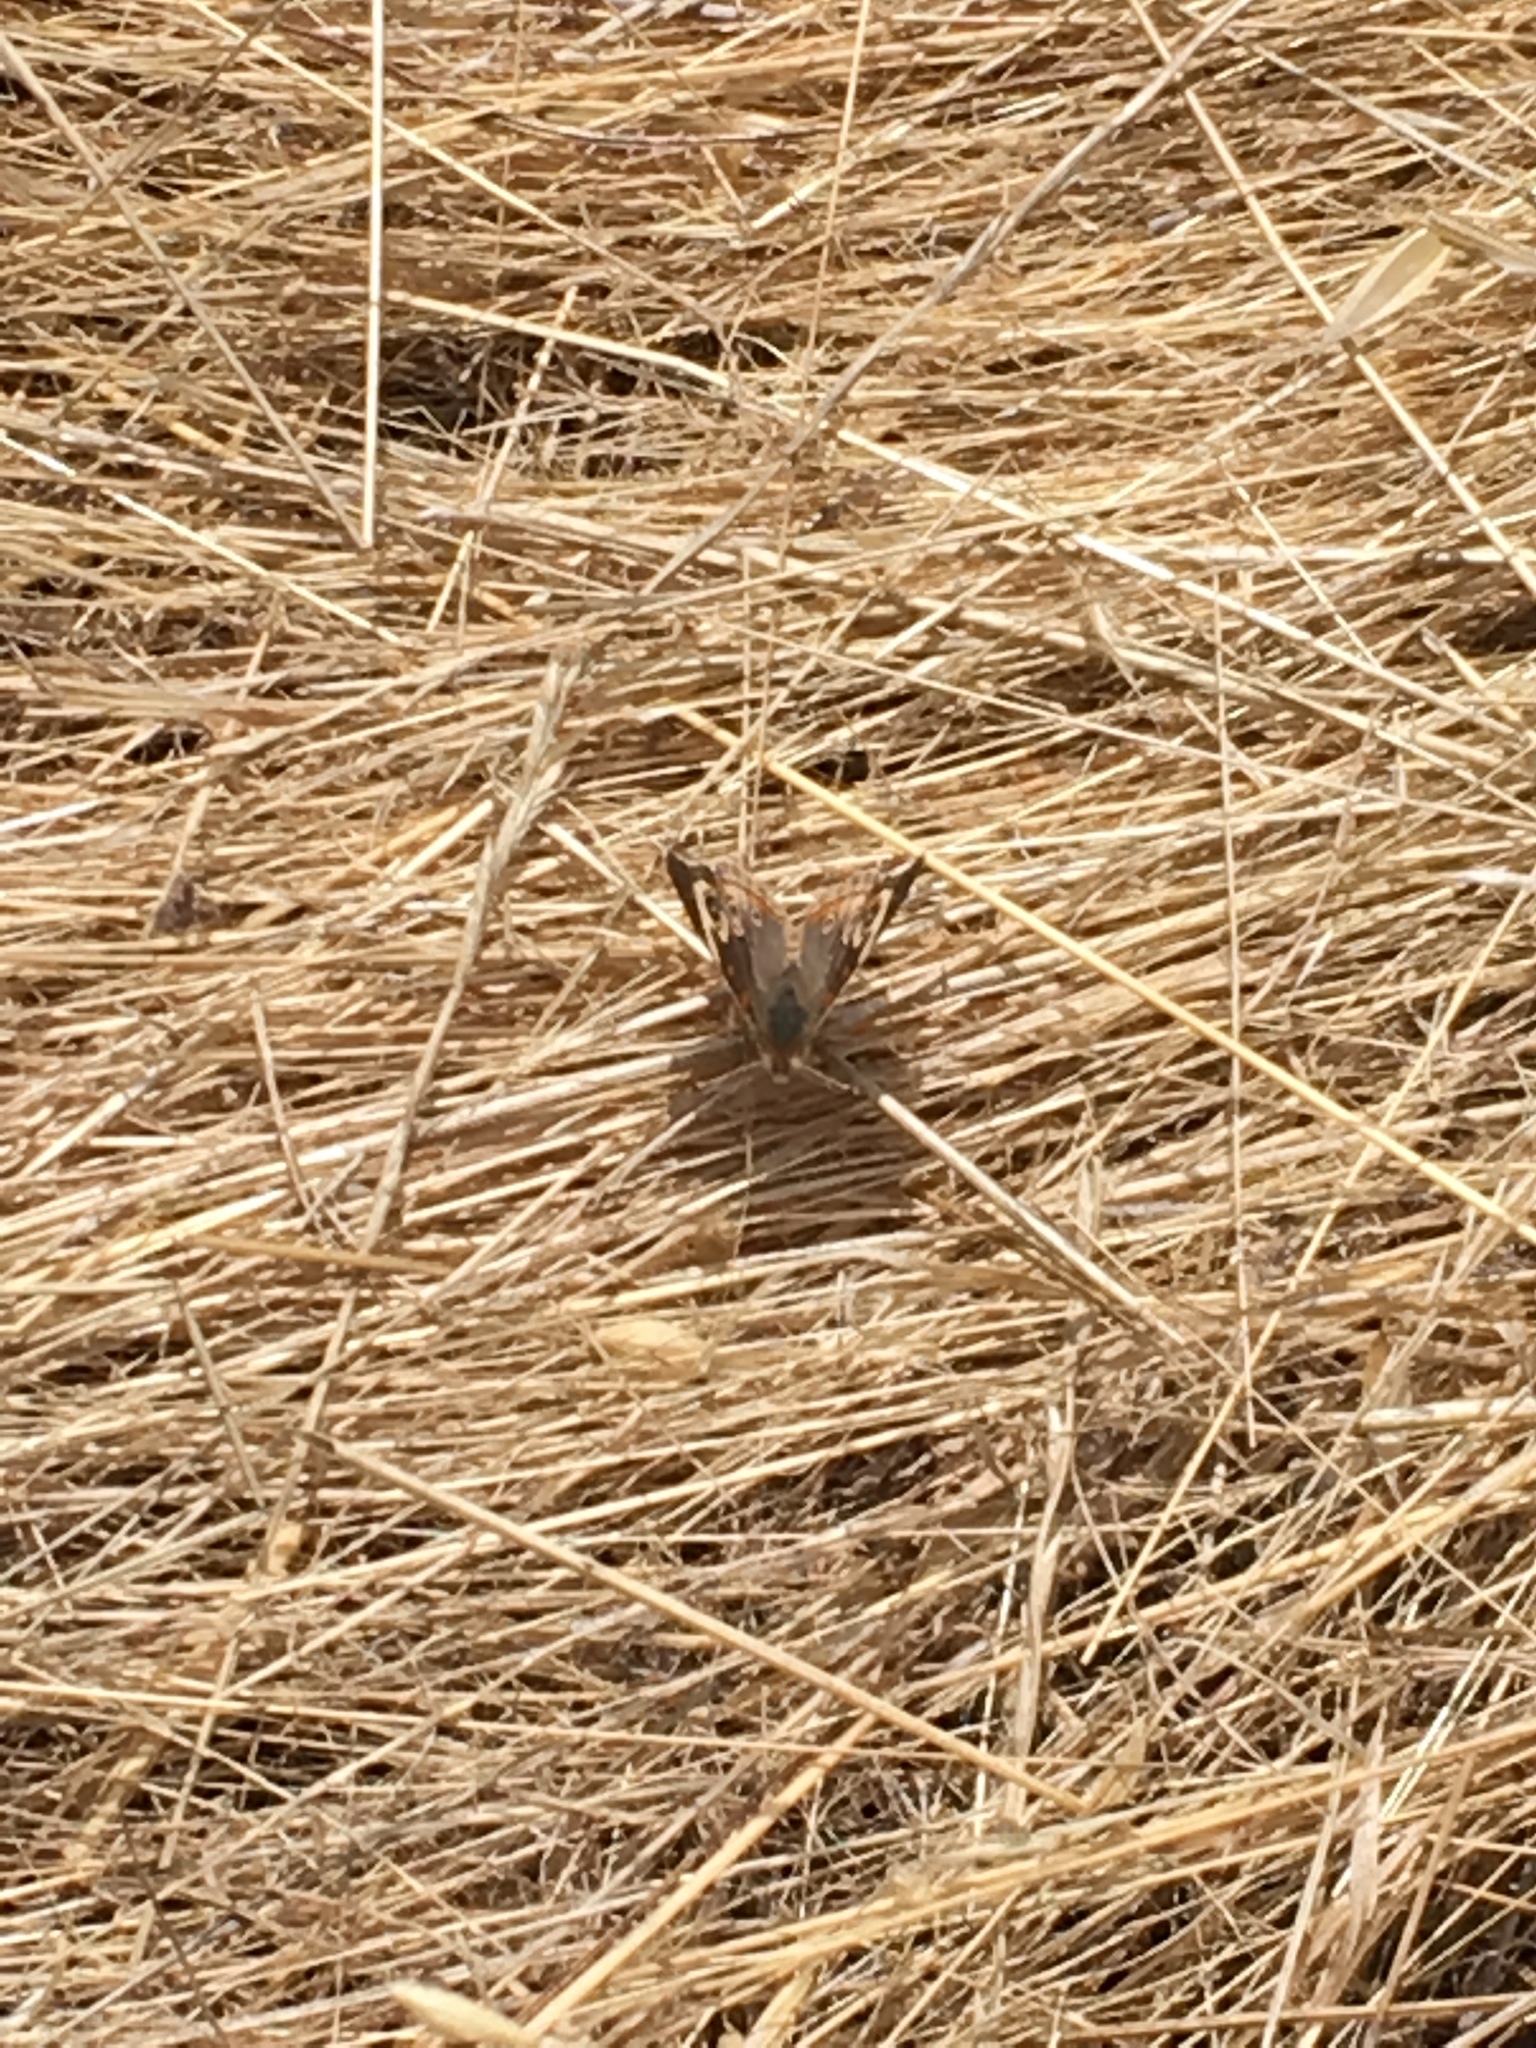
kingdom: Animalia
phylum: Arthropoda
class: Insecta
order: Lepidoptera
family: Nymphalidae
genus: Junonia
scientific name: Junonia grisea
